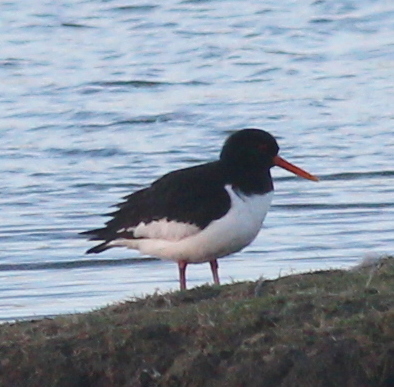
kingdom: Animalia
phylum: Chordata
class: Aves
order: Charadriiformes
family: Haematopodidae
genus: Haematopus
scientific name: Haematopus ostralegus
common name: Eurasian oystercatcher
